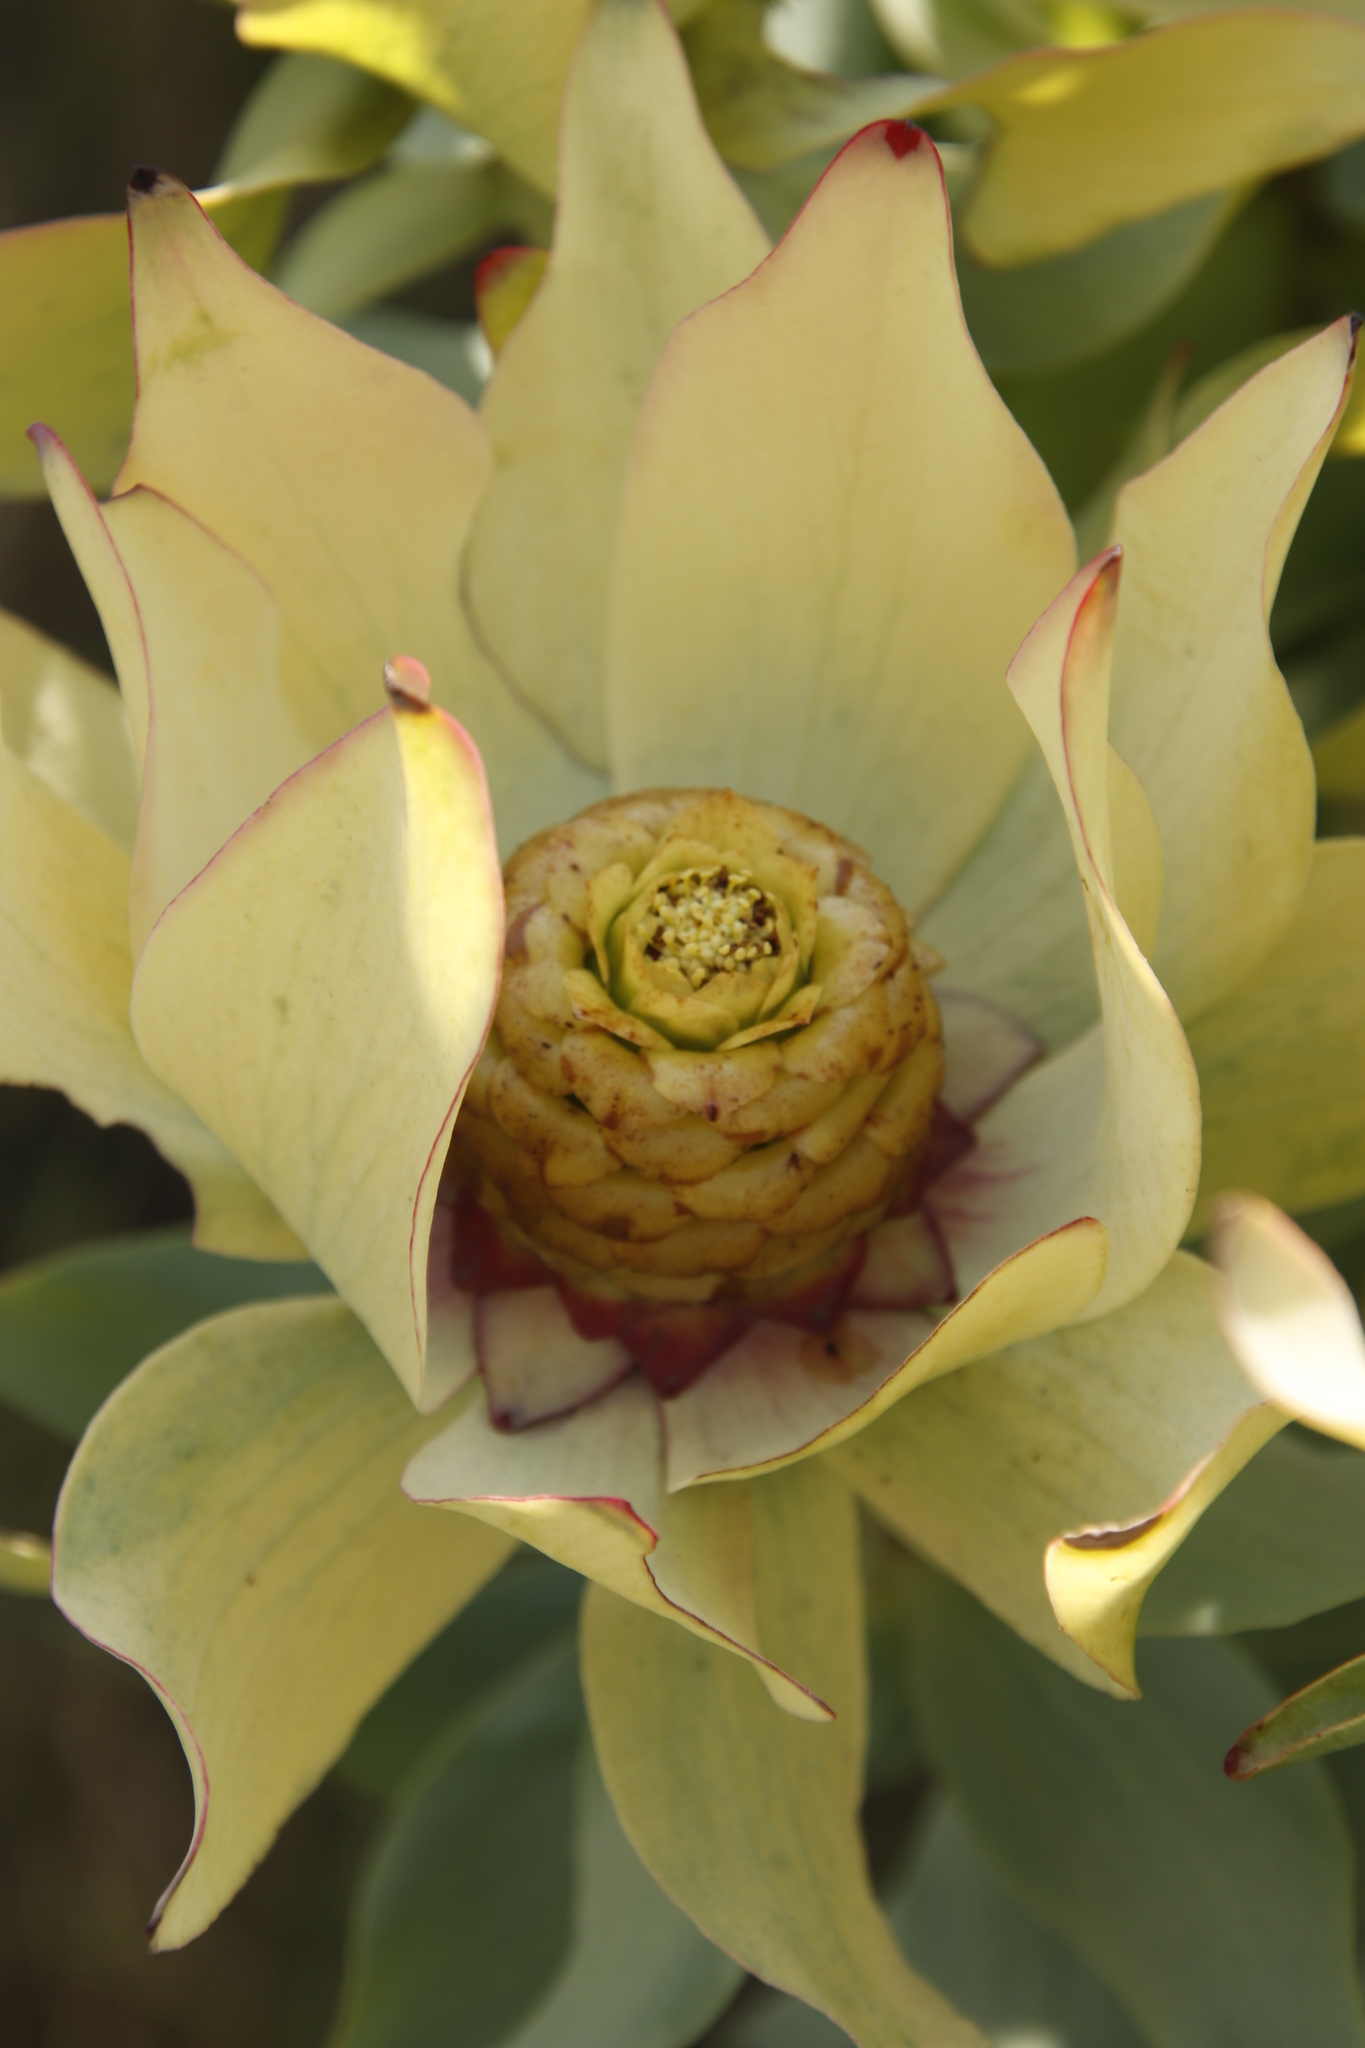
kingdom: Plantae
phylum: Tracheophyta
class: Magnoliopsida
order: Proteales
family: Proteaceae
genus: Leucadendron
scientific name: Leucadendron tinctum
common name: Spicy conebush
